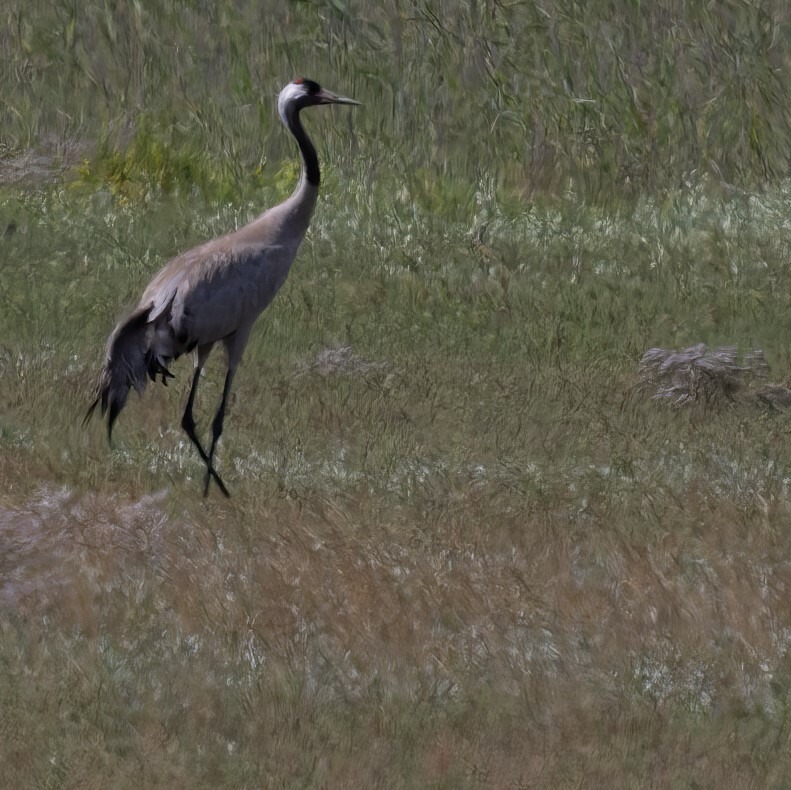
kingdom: Animalia
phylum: Chordata
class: Aves
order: Gruiformes
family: Gruidae
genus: Grus
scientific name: Grus grus
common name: Common crane
